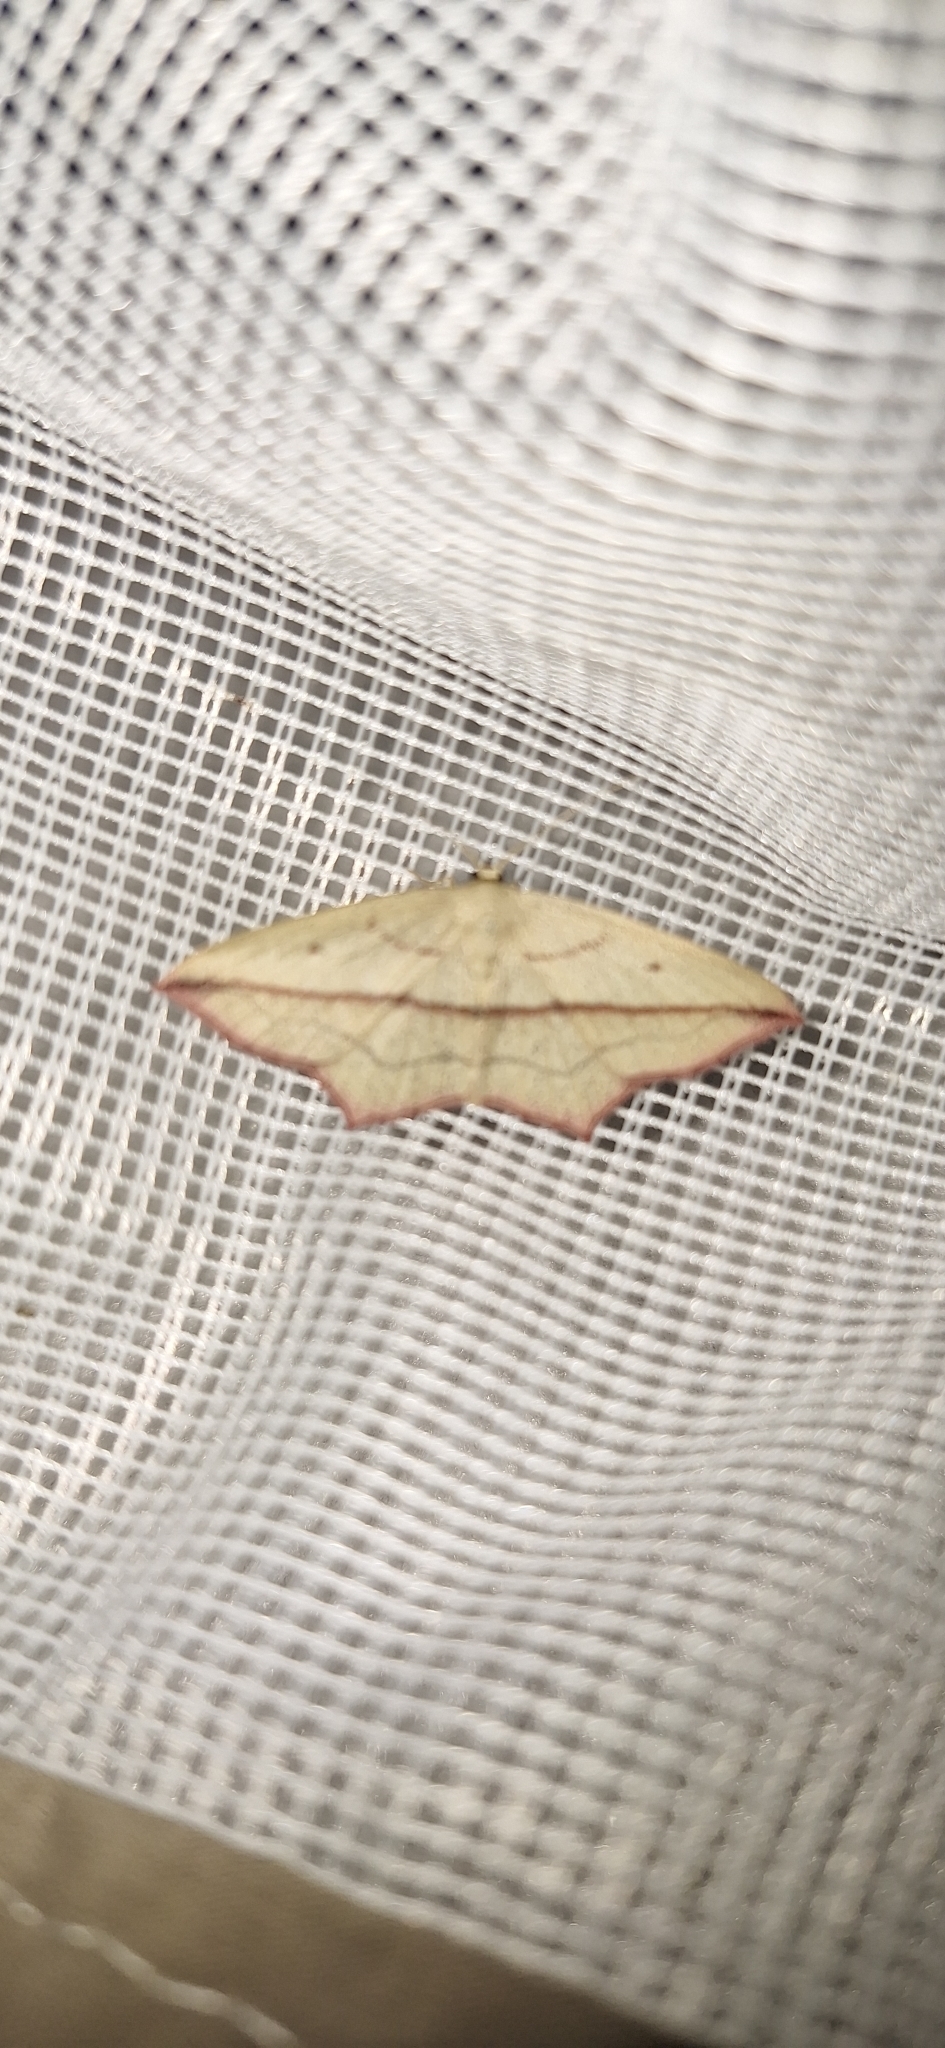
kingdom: Animalia
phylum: Arthropoda
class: Insecta
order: Lepidoptera
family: Geometridae
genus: Timandra
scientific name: Timandra comae
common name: Blood-vein
